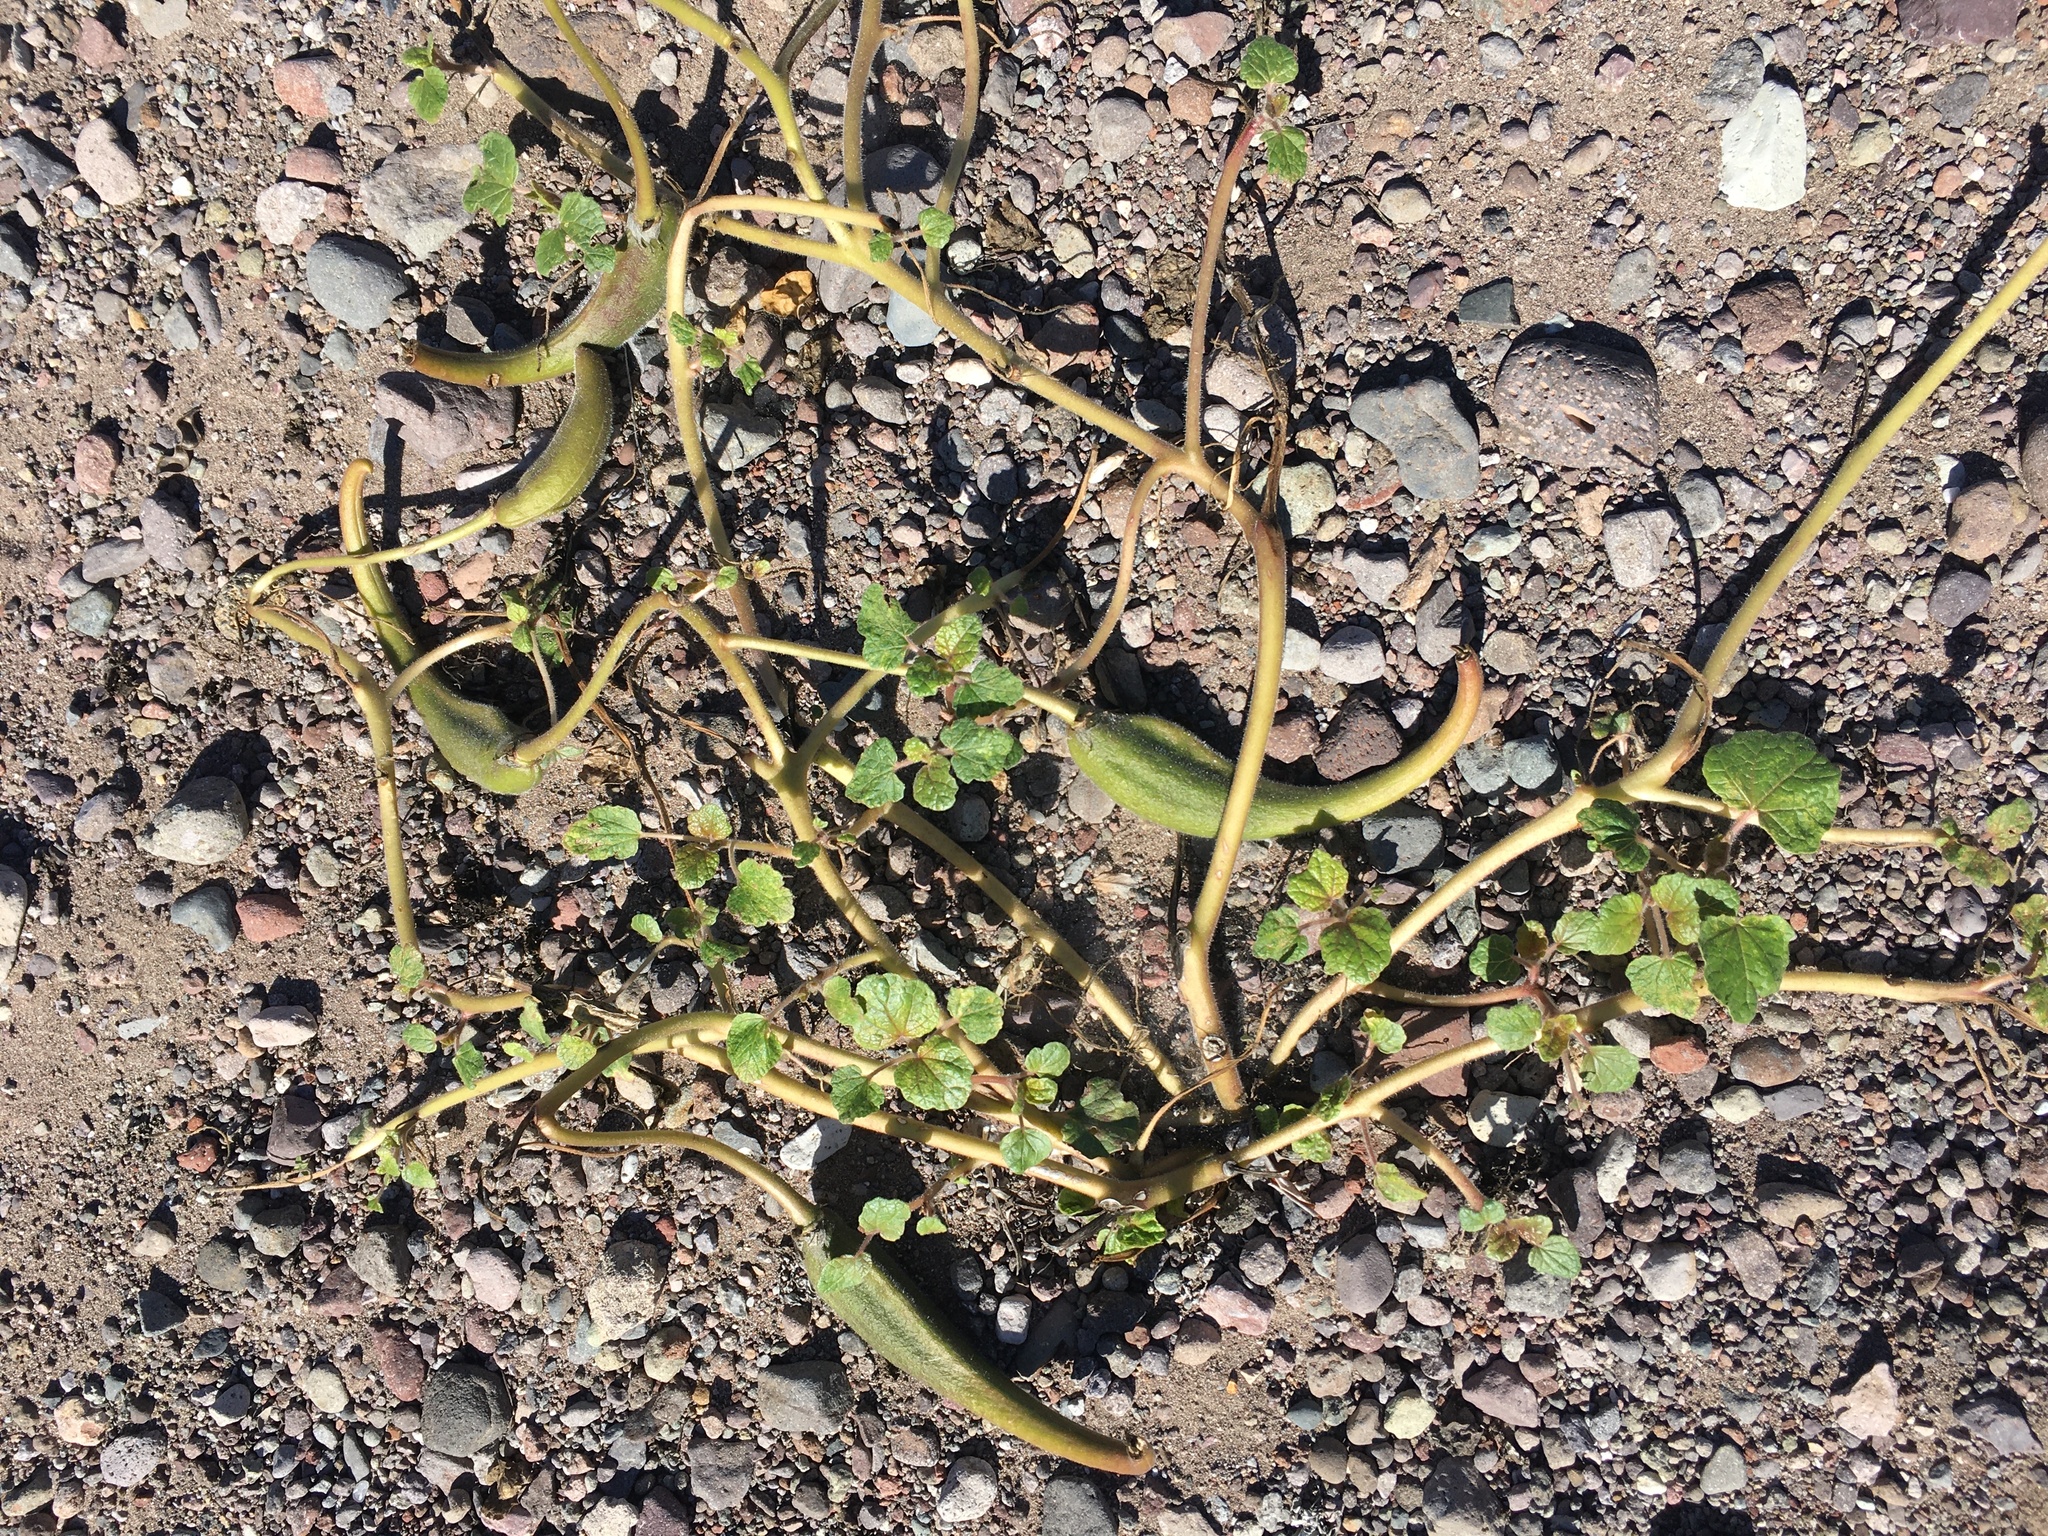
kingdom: Plantae
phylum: Tracheophyta
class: Magnoliopsida
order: Lamiales
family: Martyniaceae
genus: Proboscidea
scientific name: Proboscidea althaeifolia
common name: Desert unicorn-plant
